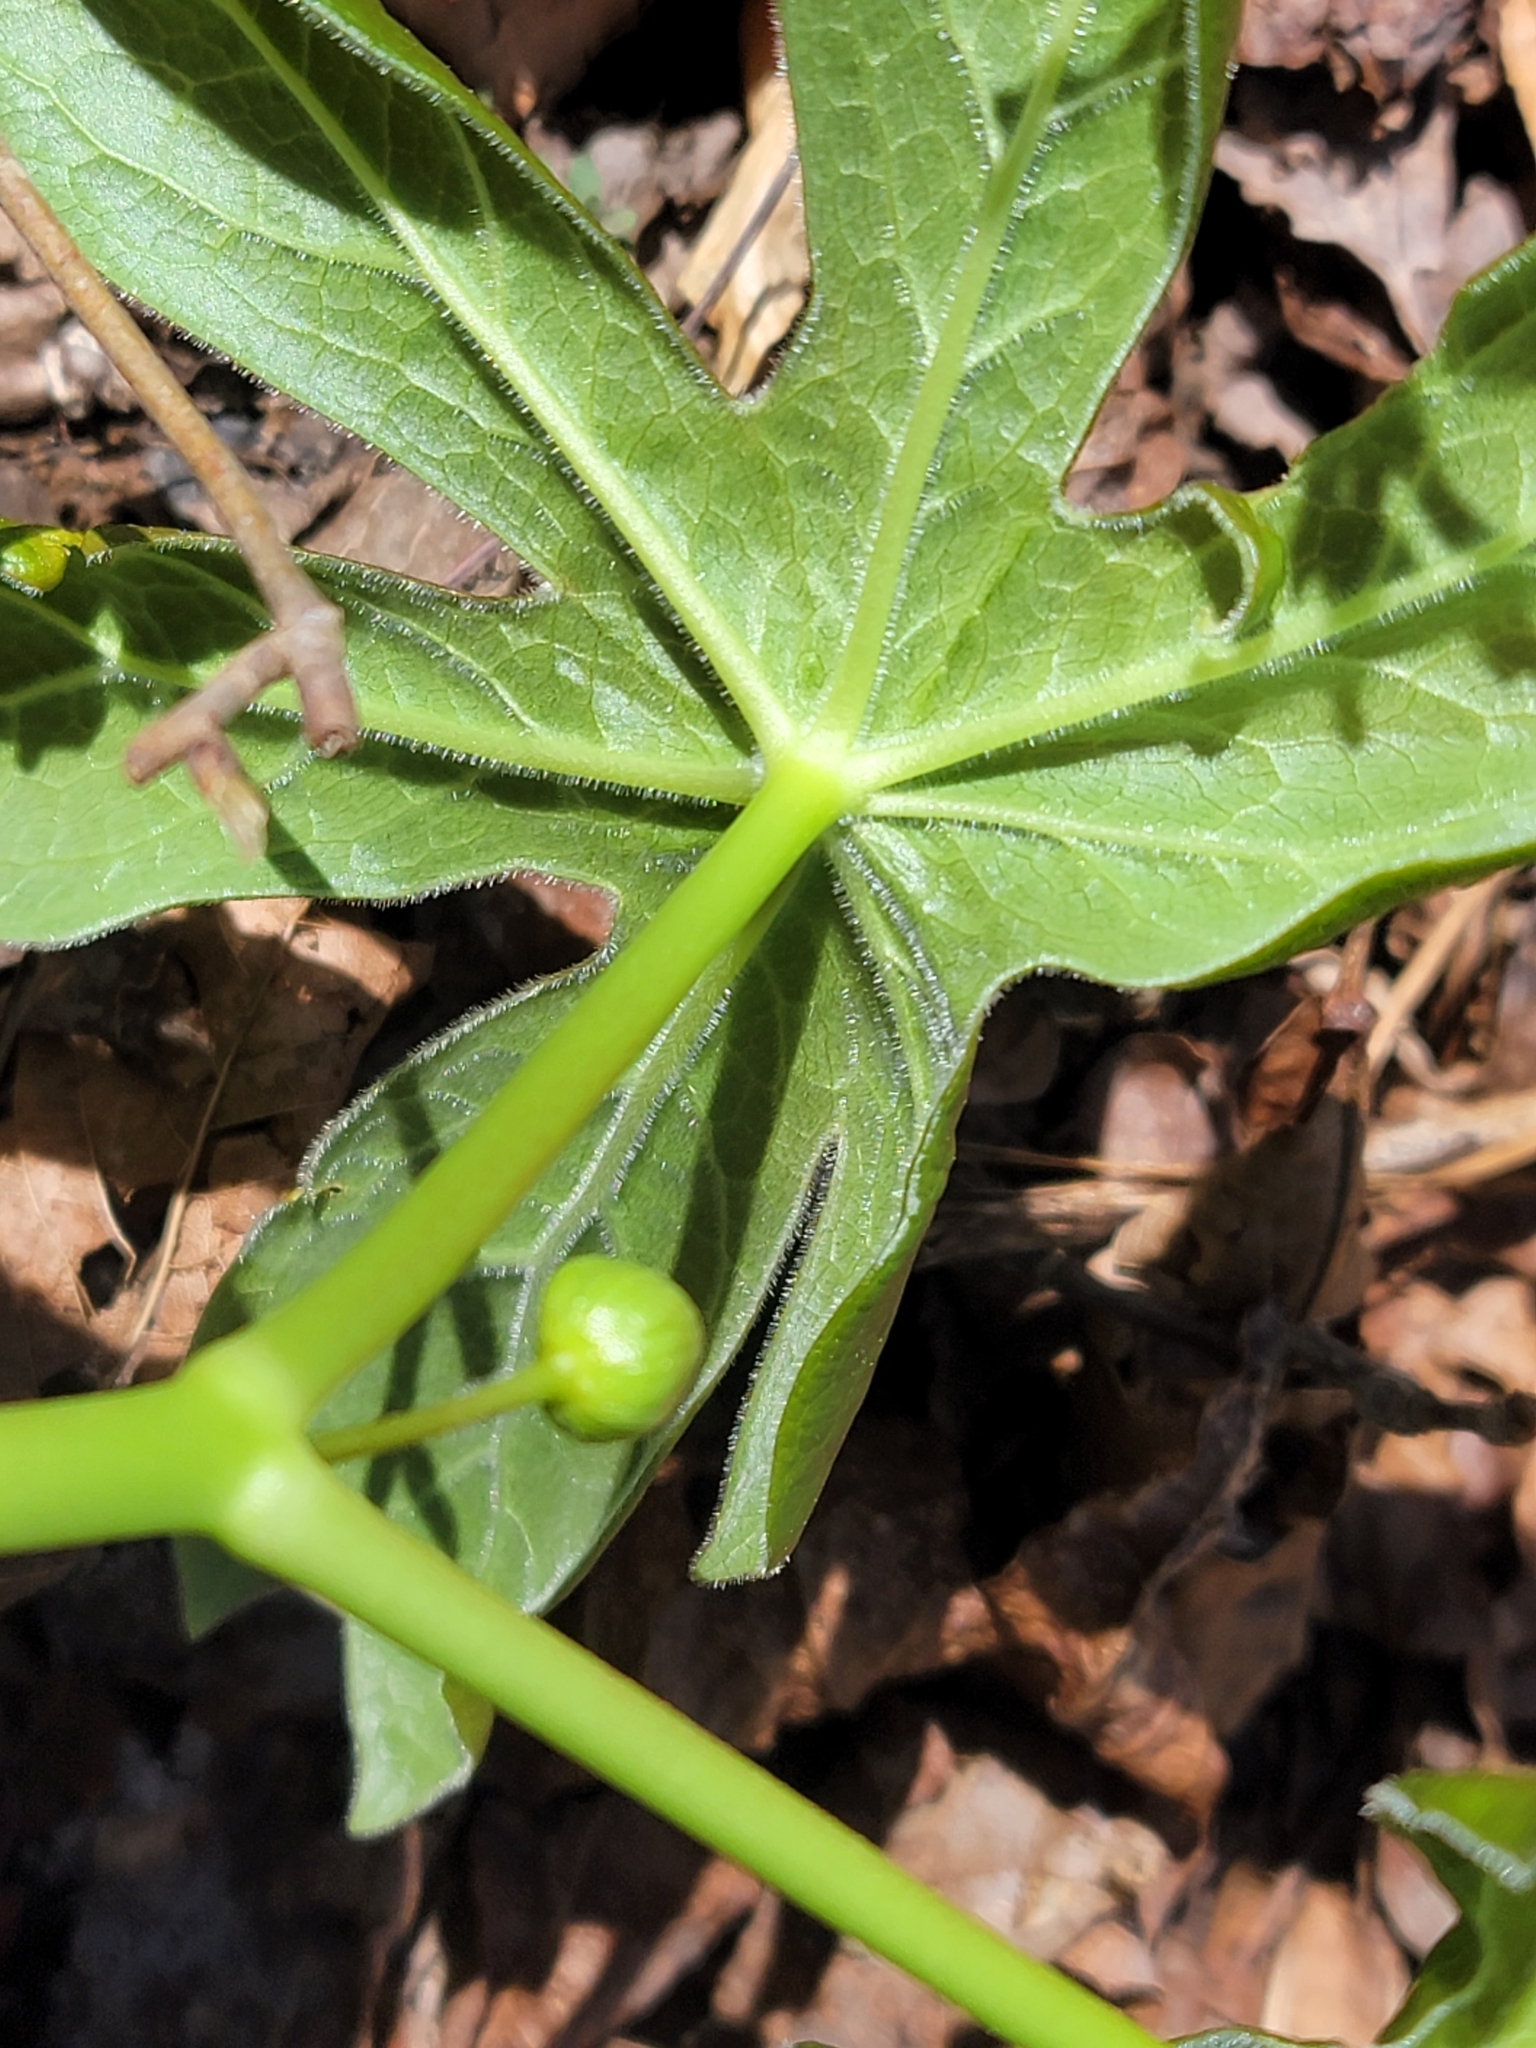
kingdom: Plantae
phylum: Tracheophyta
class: Magnoliopsida
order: Ranunculales
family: Berberidaceae
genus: Podophyllum
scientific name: Podophyllum peltatum
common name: Wild mandrake
